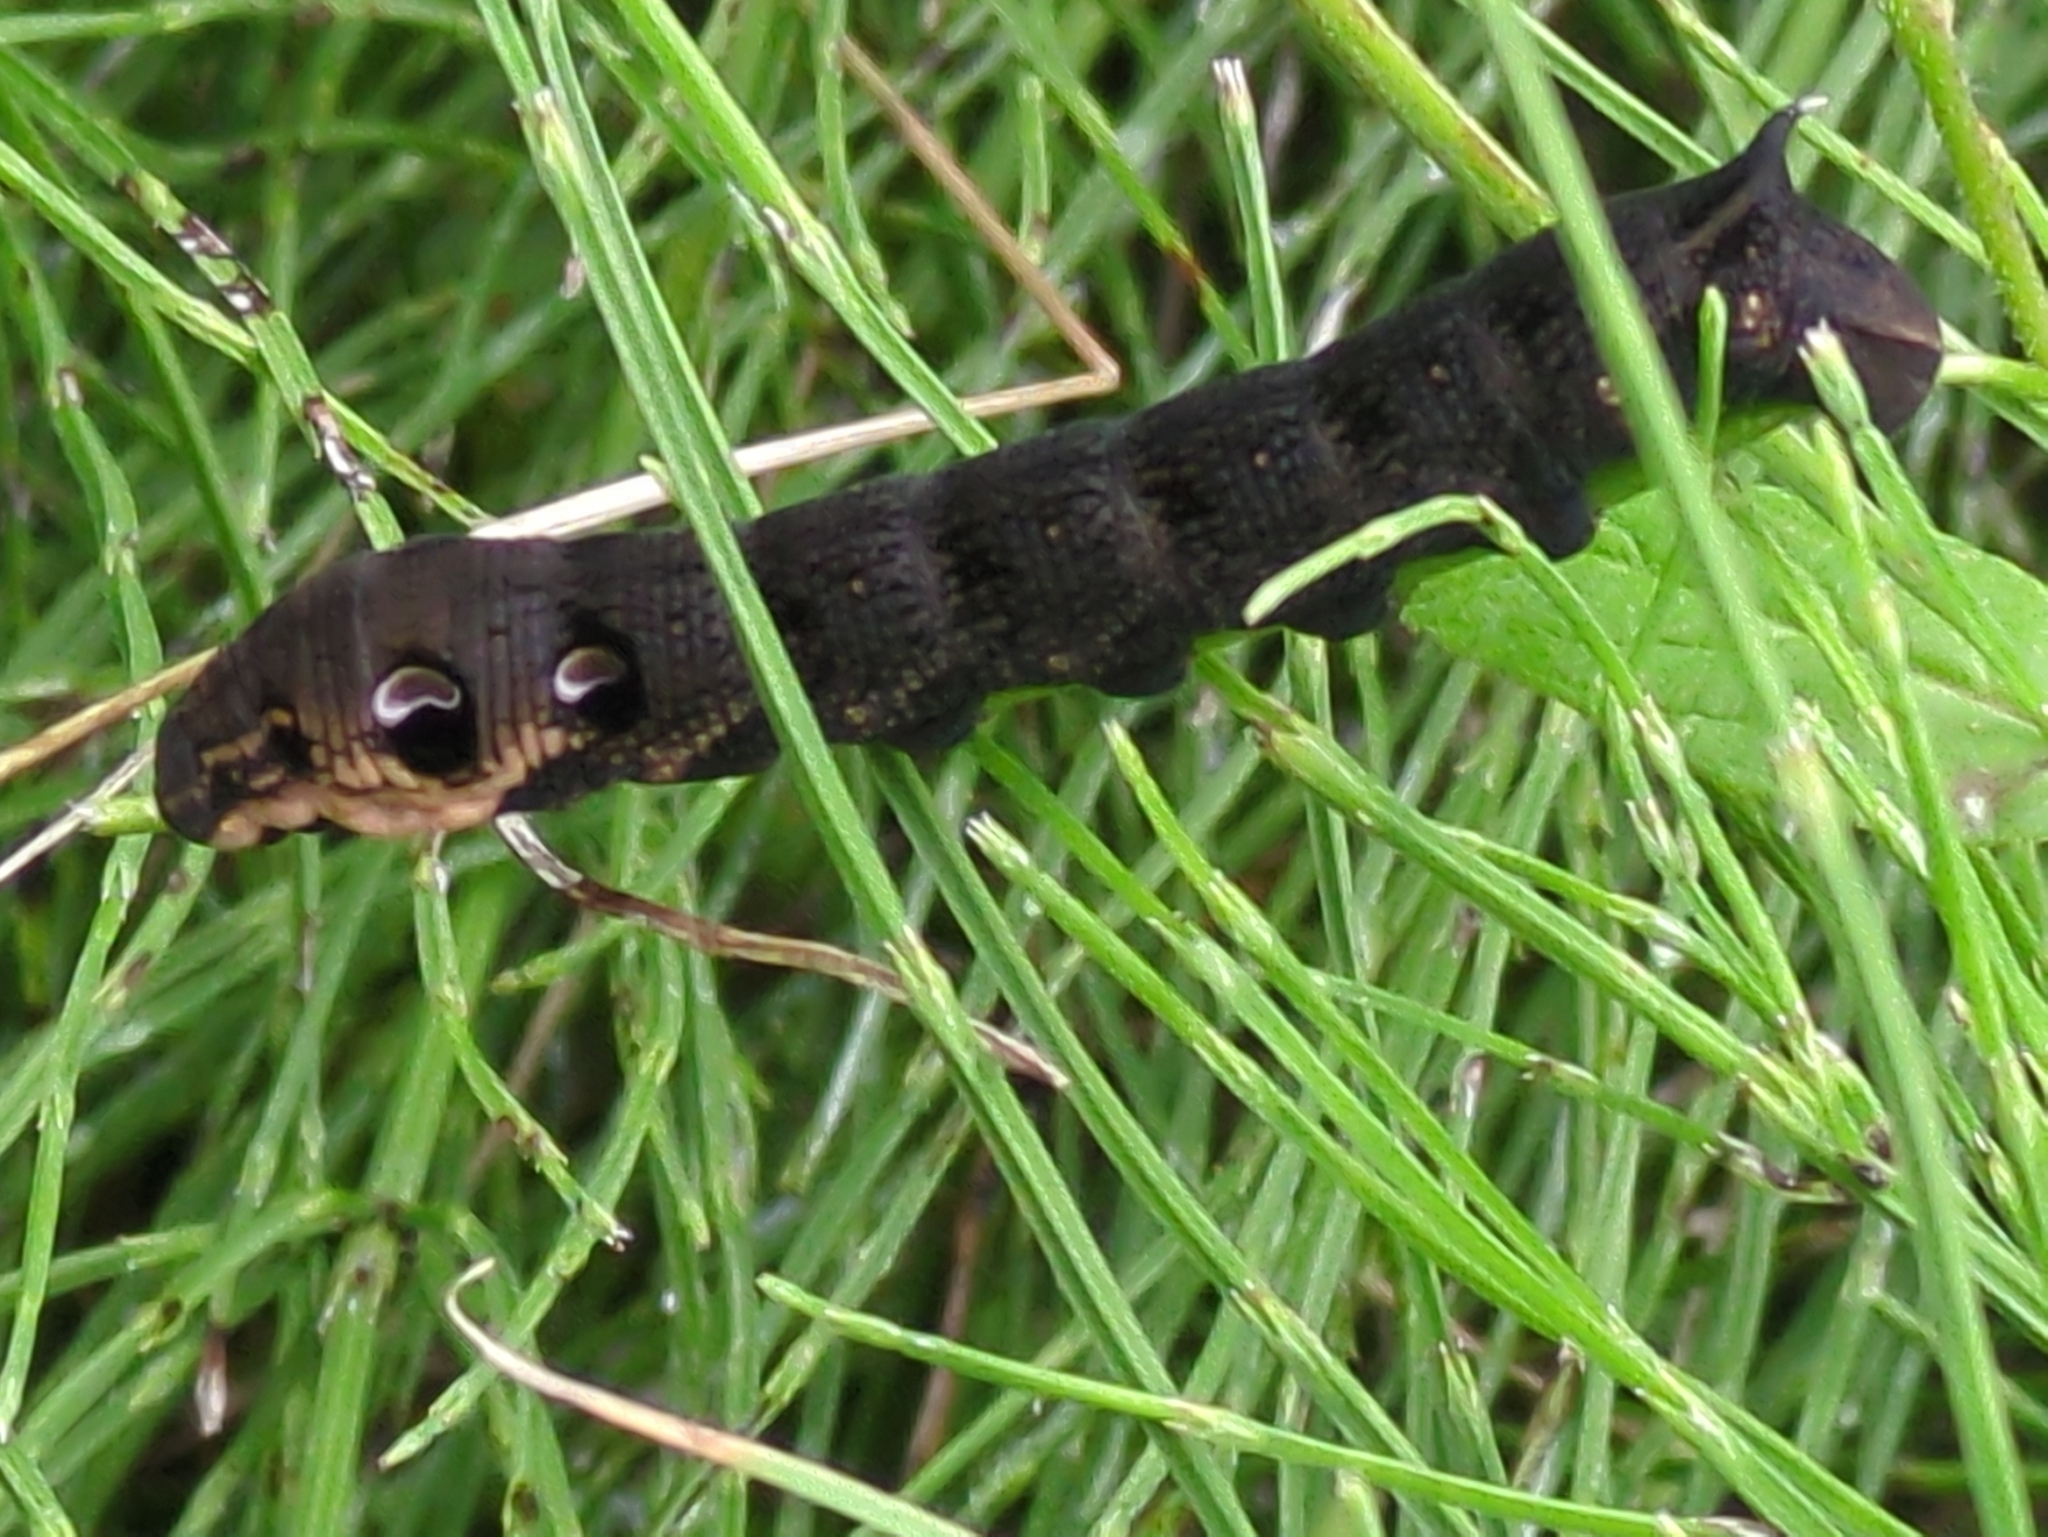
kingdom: Animalia
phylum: Arthropoda
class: Insecta
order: Lepidoptera
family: Sphingidae
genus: Deilephila
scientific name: Deilephila elpenor
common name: Elephant hawk-moth
